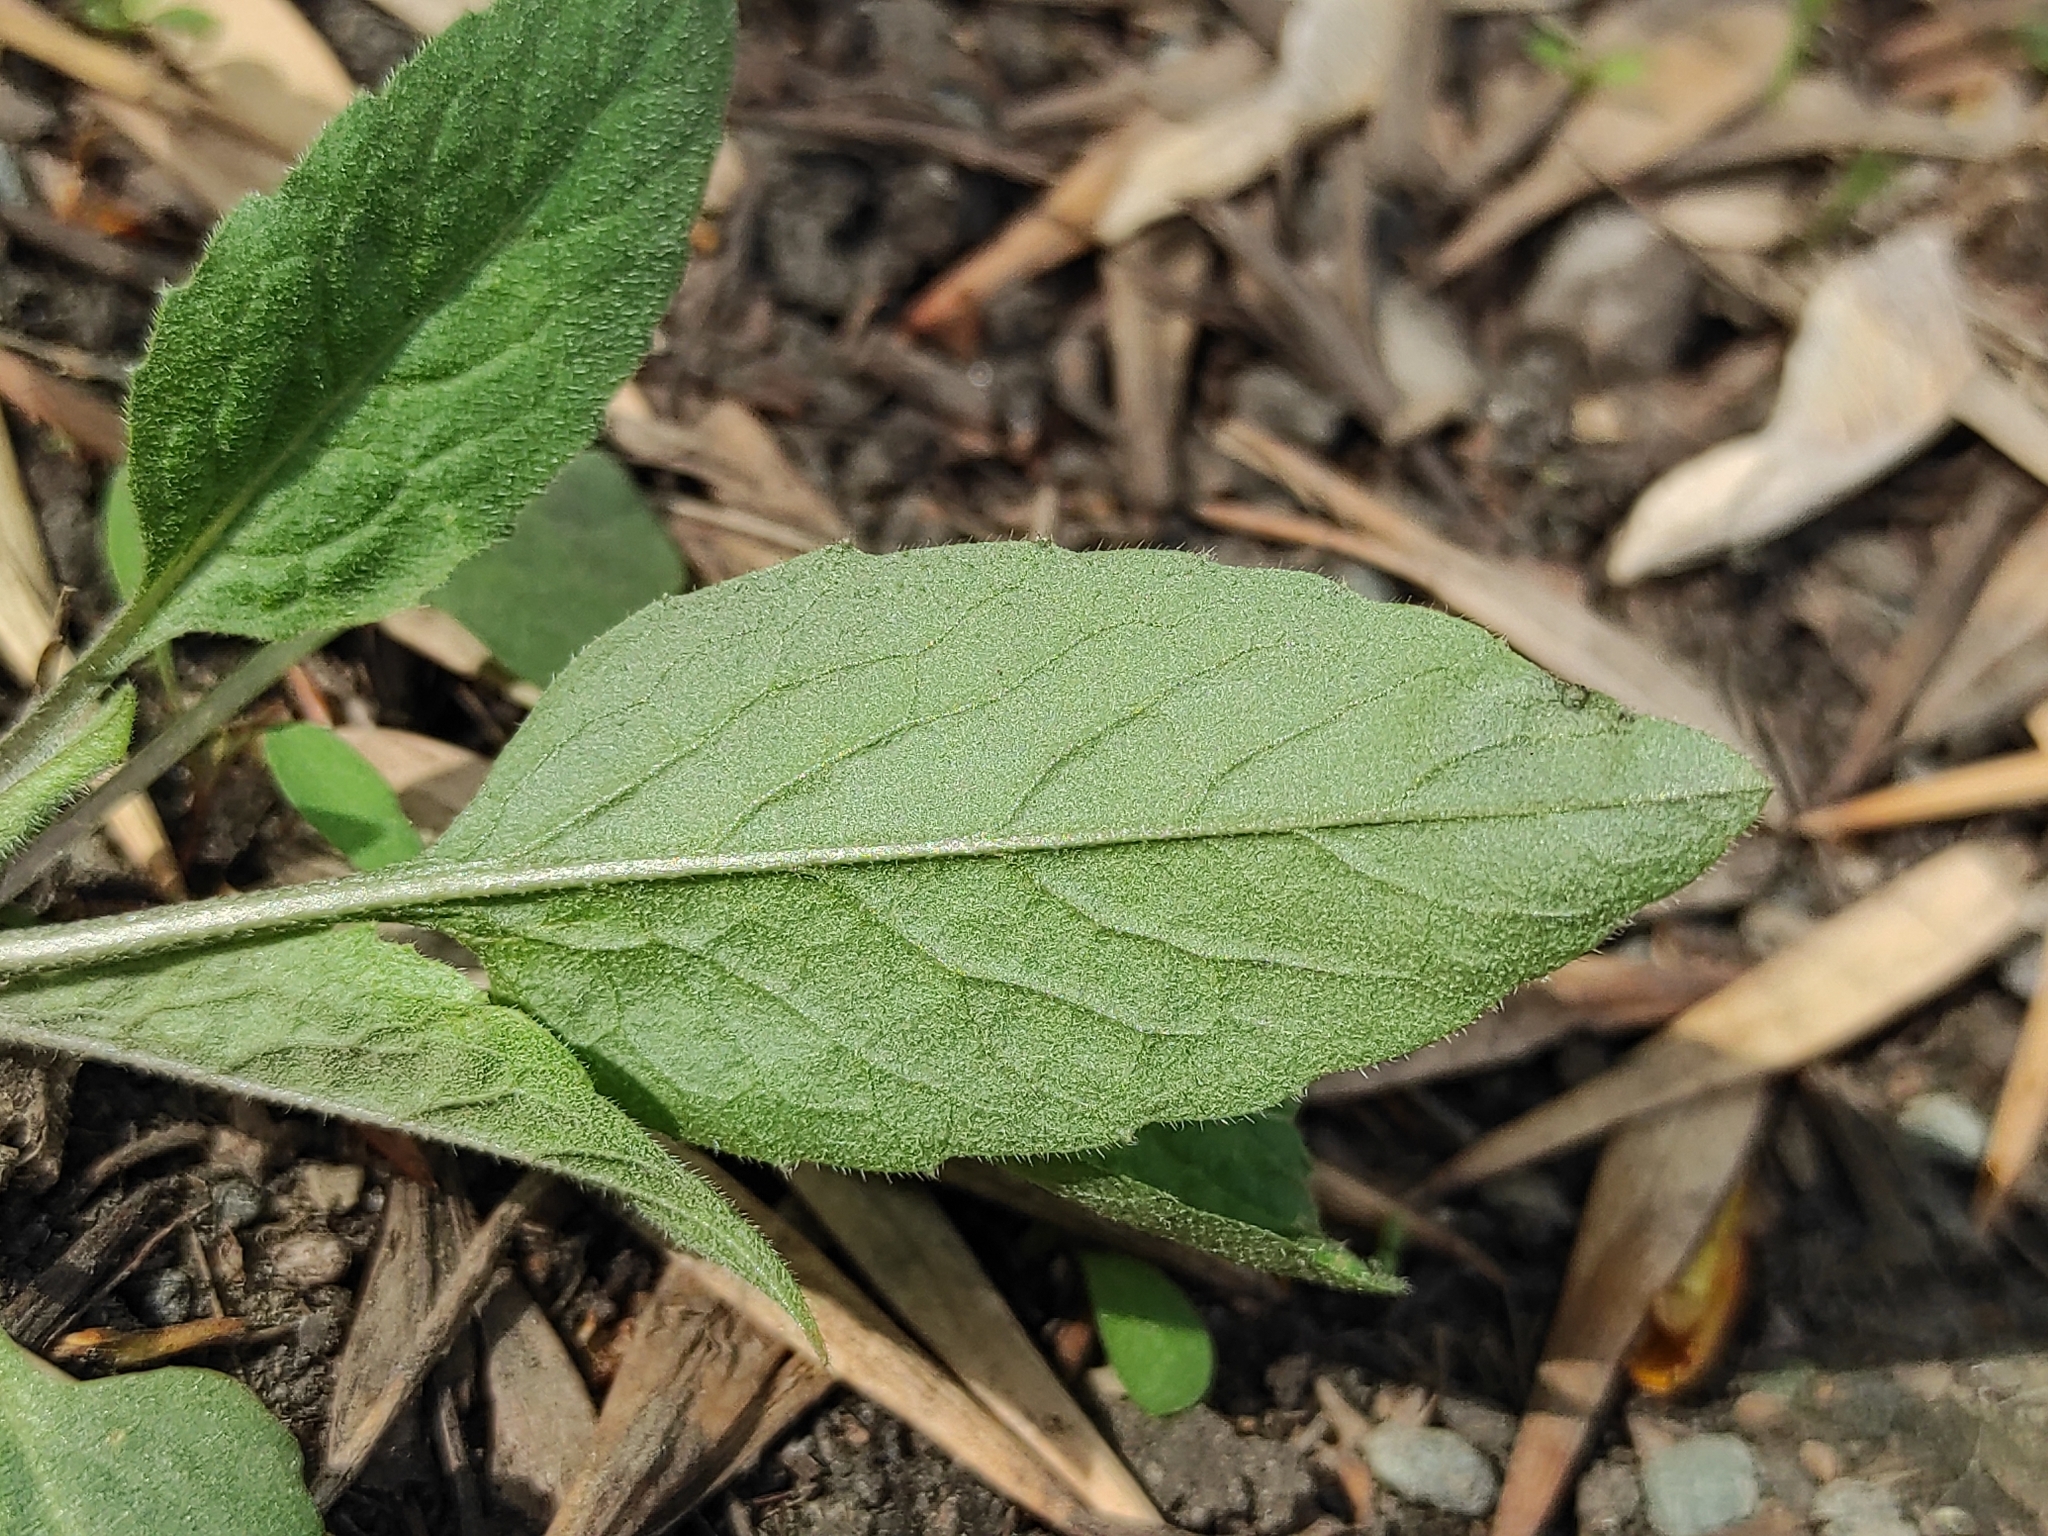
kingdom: Plantae
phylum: Tracheophyta
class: Magnoliopsida
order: Brassicales
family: Brassicaceae
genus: Catolobus
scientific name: Catolobus pendulus
